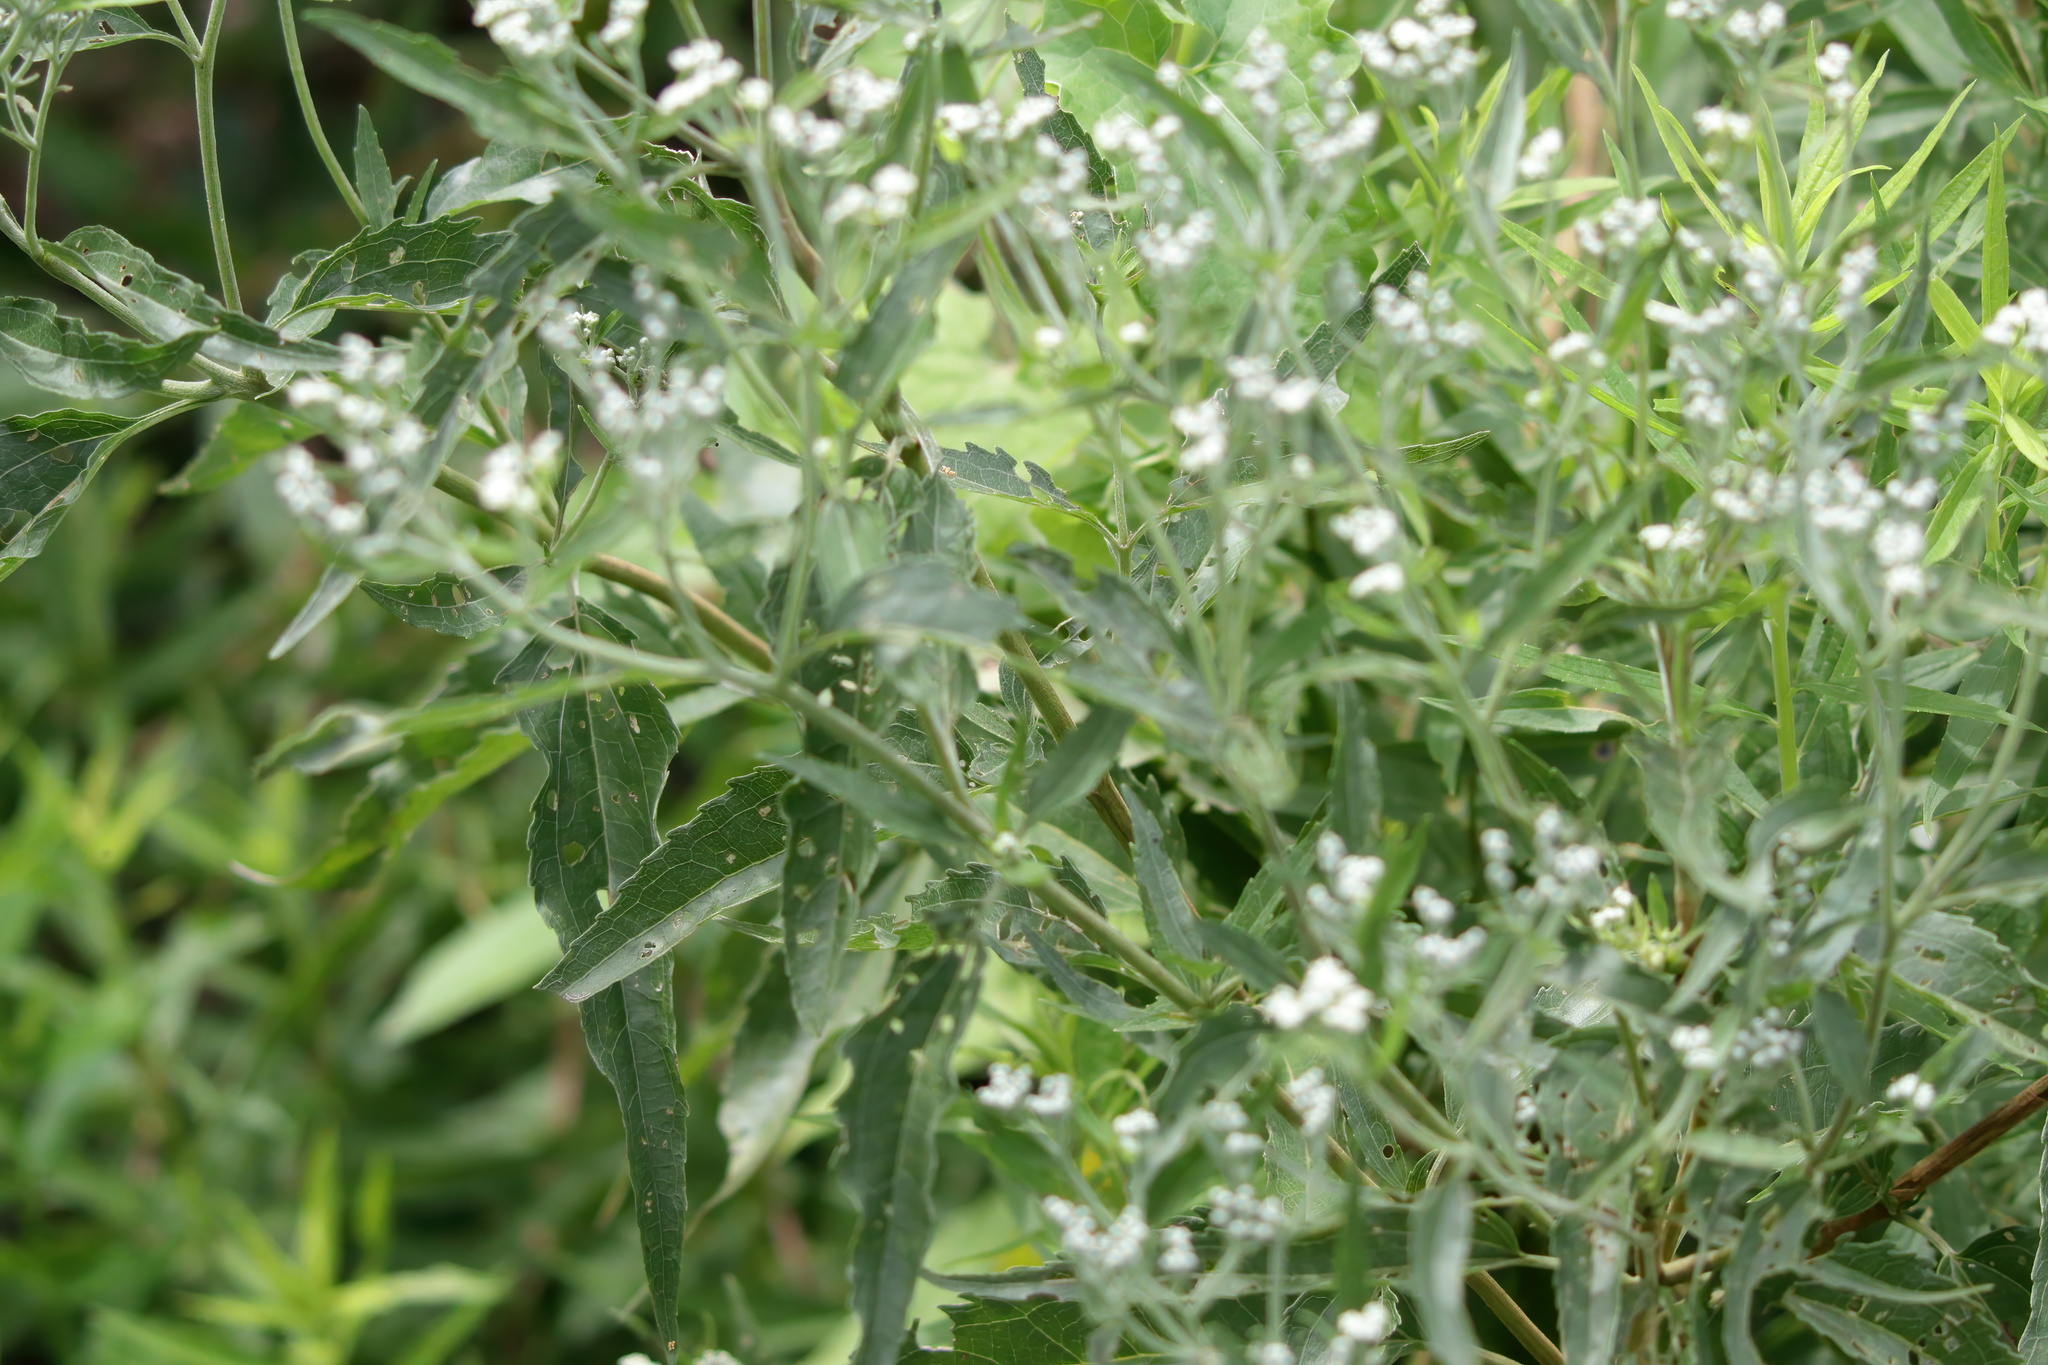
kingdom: Plantae
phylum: Tracheophyta
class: Magnoliopsida
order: Asterales
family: Asteraceae
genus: Eupatorium
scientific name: Eupatorium serotinum
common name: Late boneset
